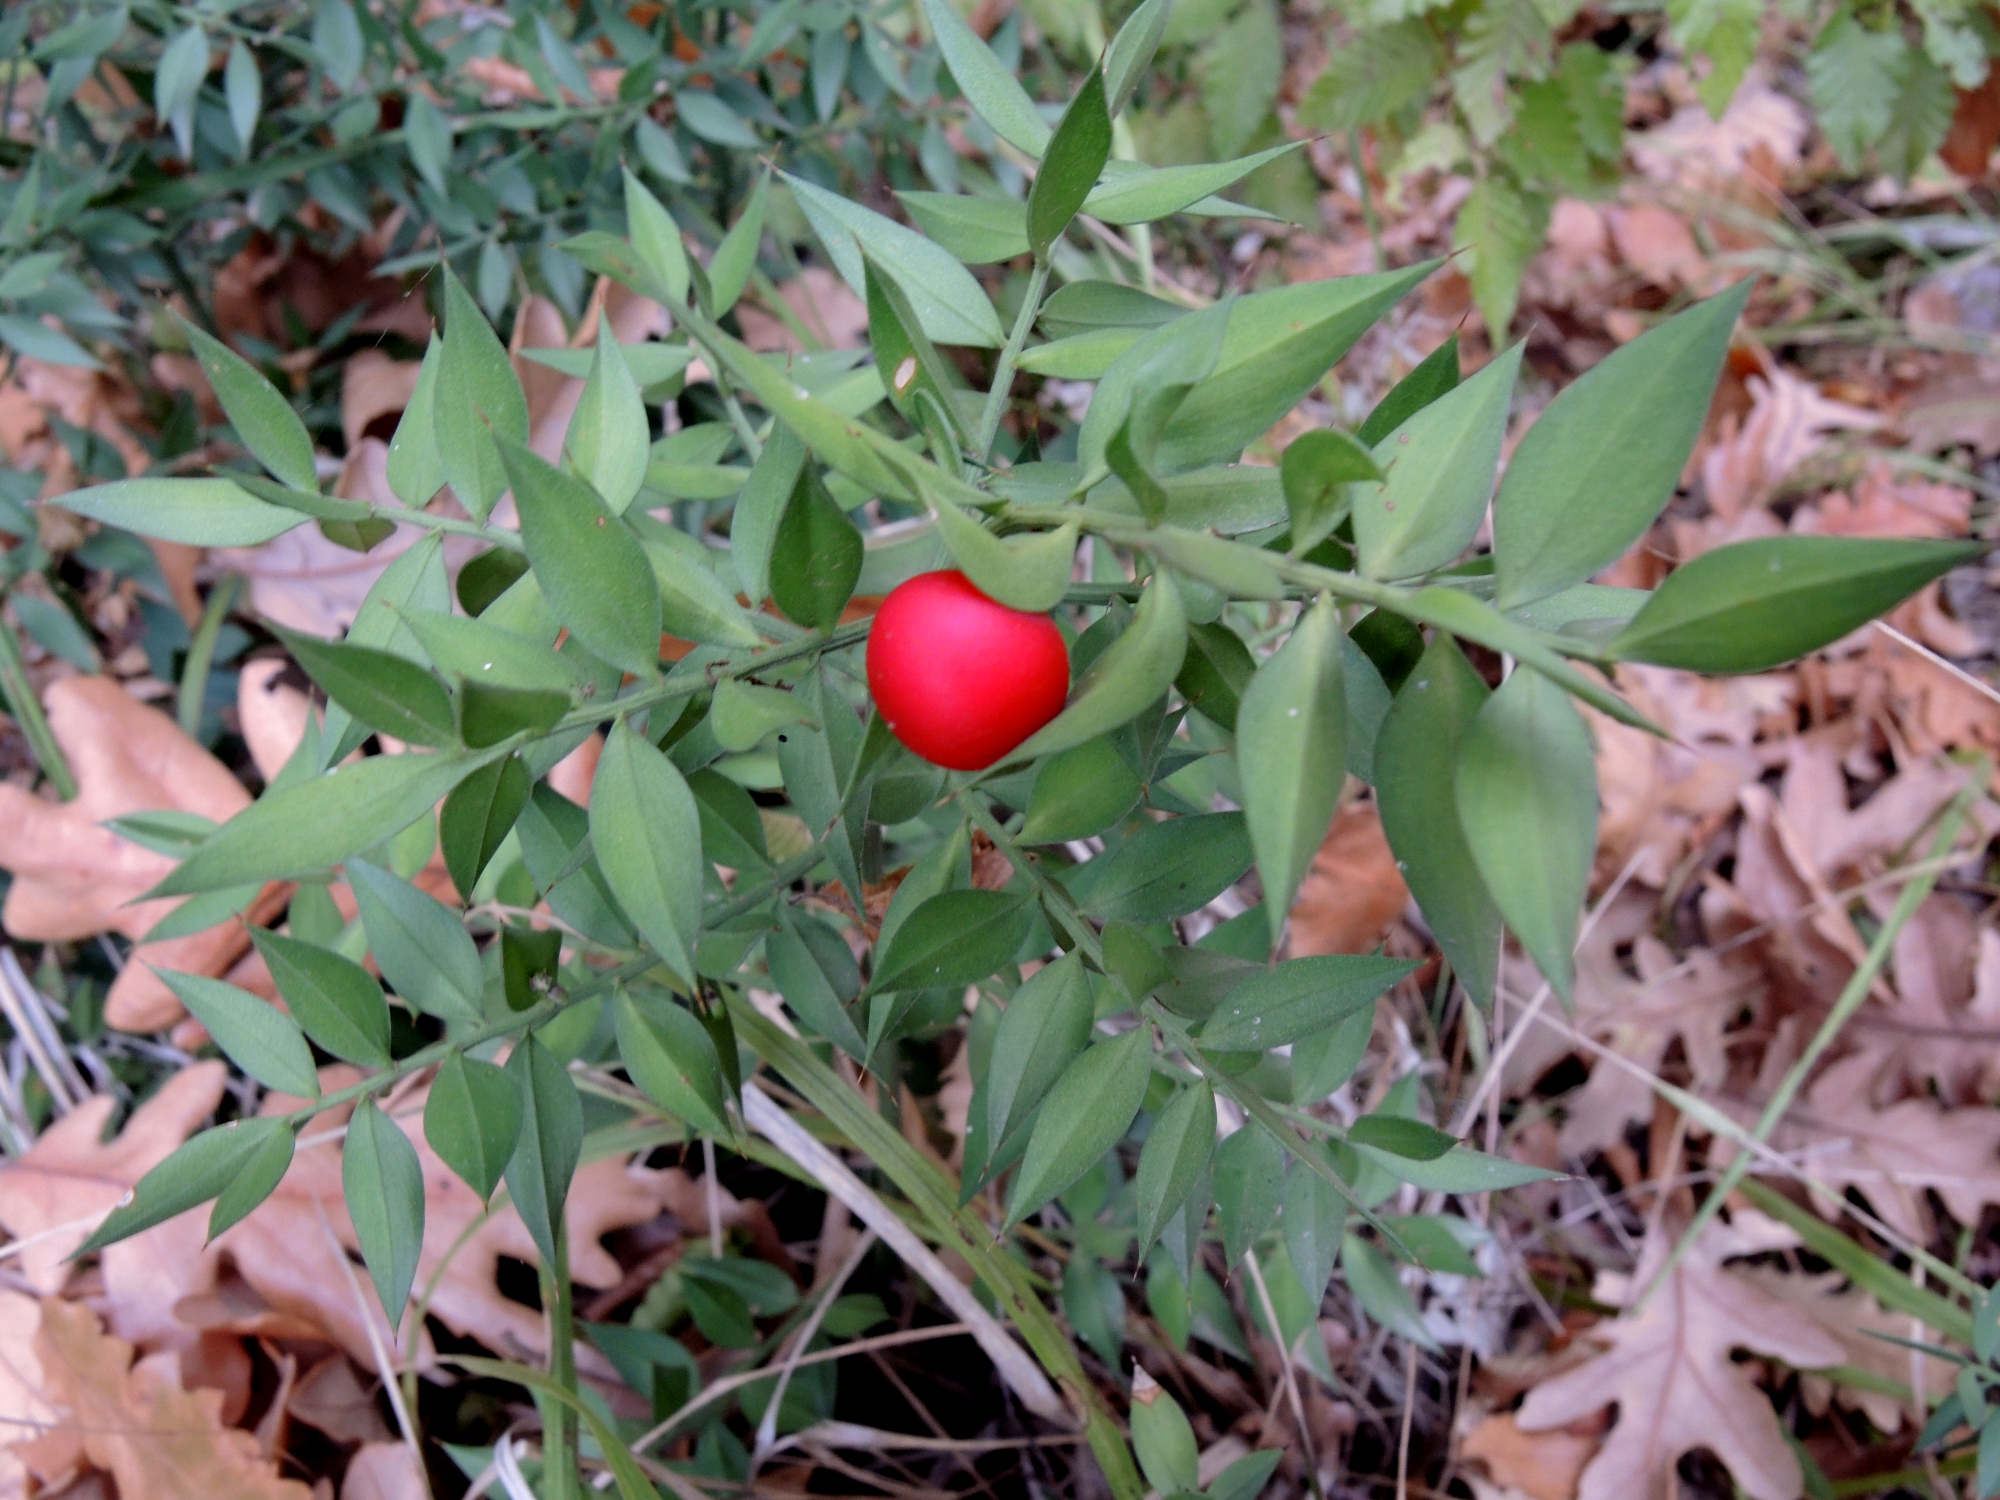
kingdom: Plantae
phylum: Tracheophyta
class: Liliopsida
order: Asparagales
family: Asparagaceae
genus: Ruscus
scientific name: Ruscus aculeatus
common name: Butcher's-broom
